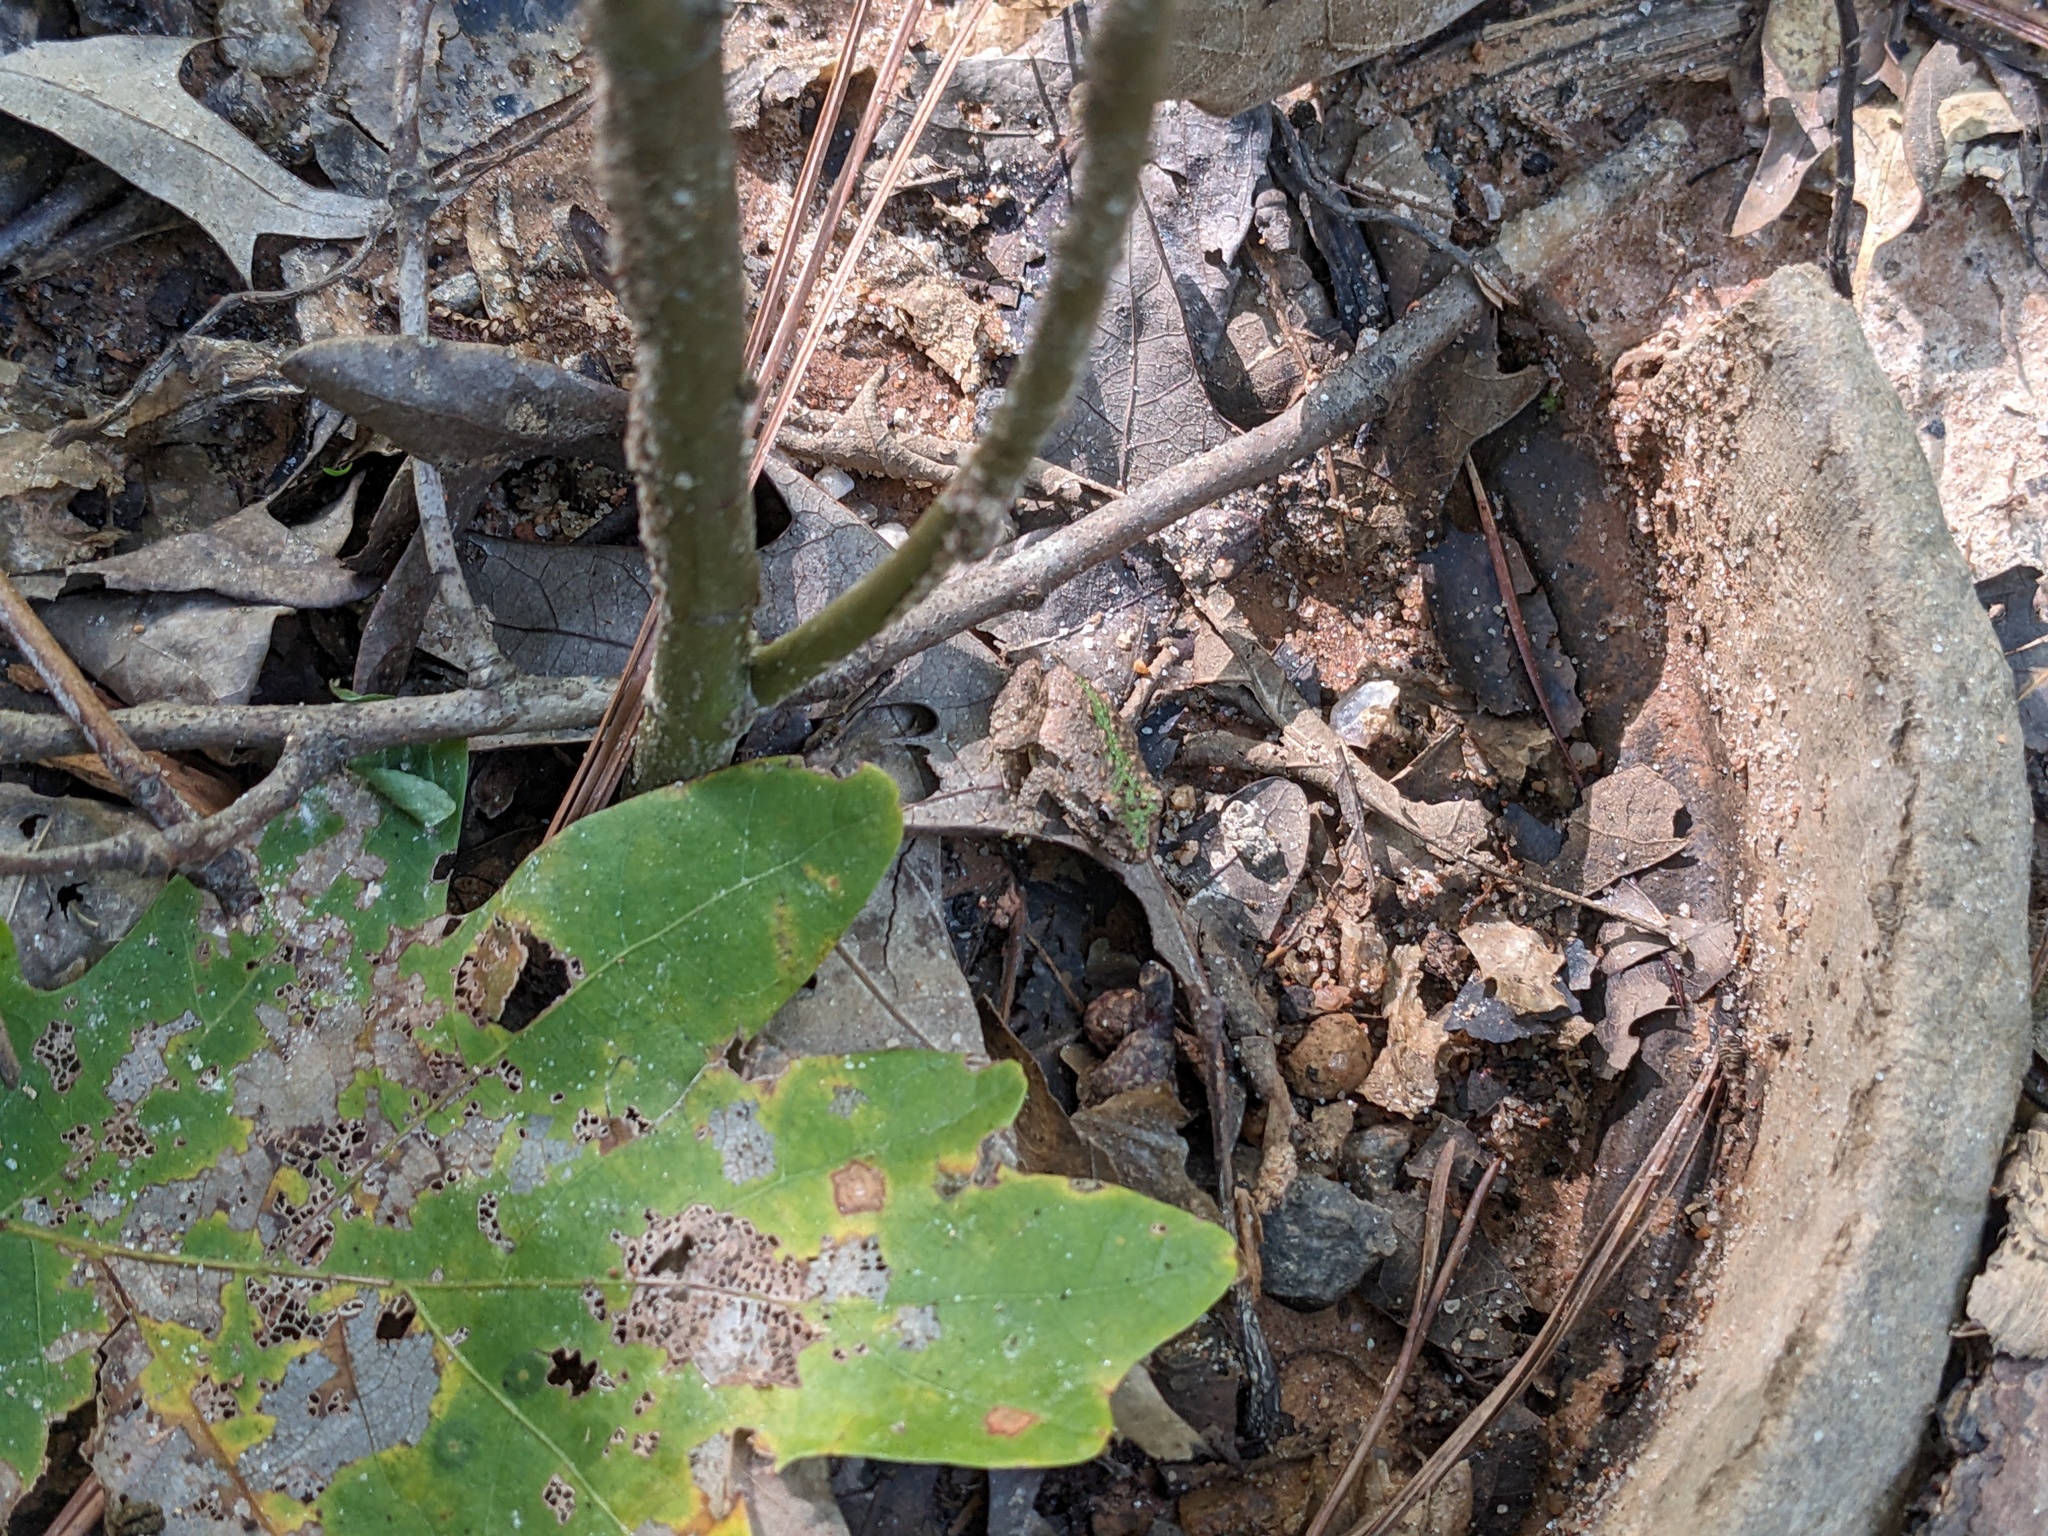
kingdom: Animalia
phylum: Chordata
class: Amphibia
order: Anura
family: Hylidae
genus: Acris
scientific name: Acris crepitans
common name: Northern cricket frog
